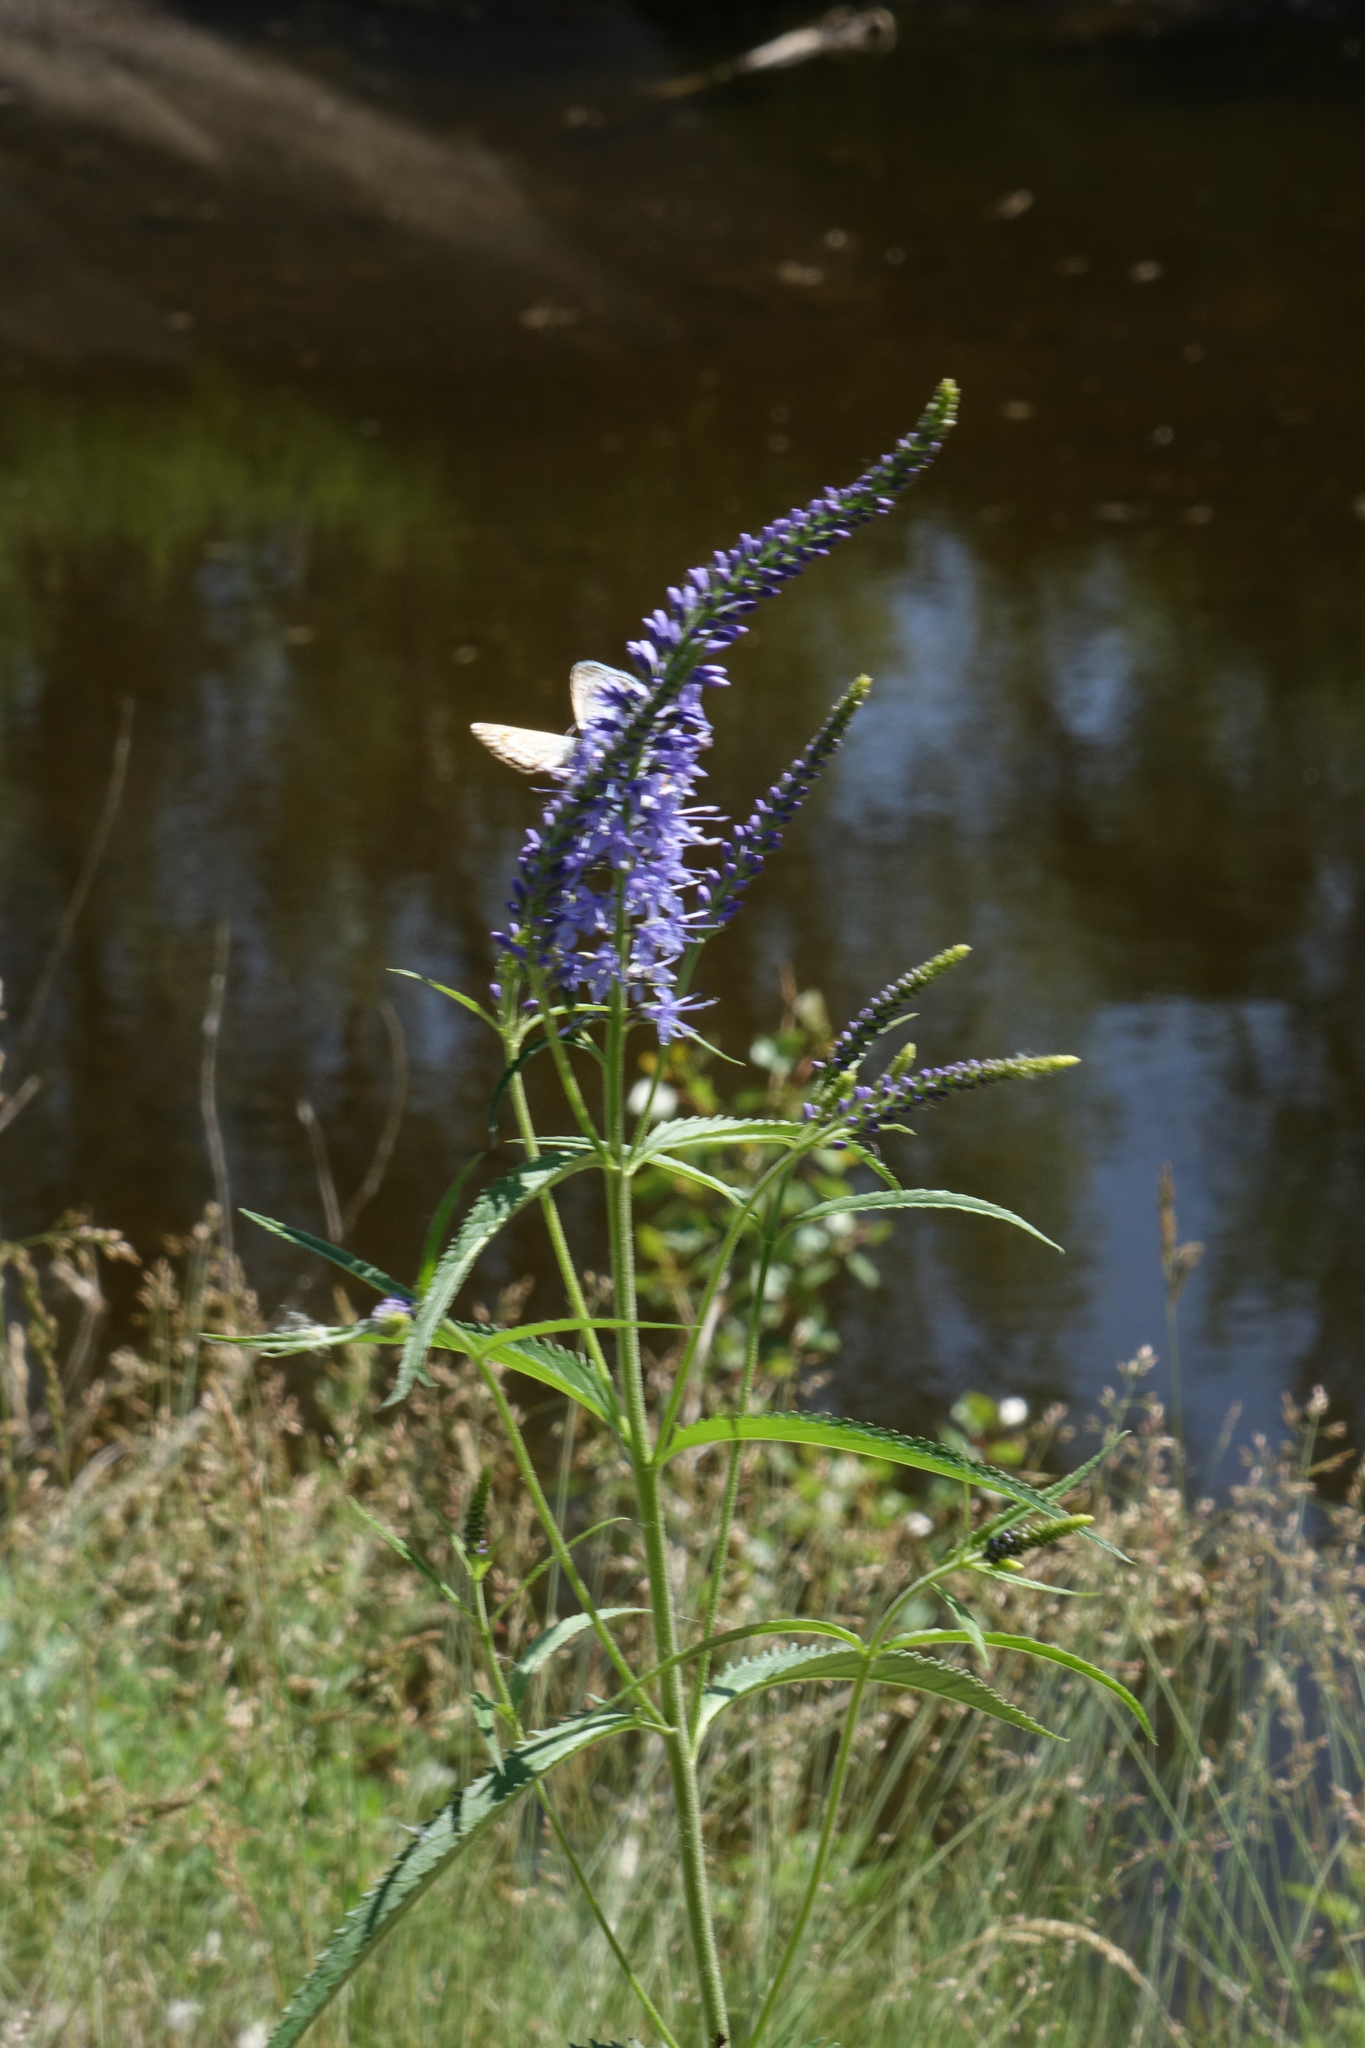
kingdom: Plantae
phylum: Tracheophyta
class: Magnoliopsida
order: Lamiales
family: Plantaginaceae
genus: Veronica
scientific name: Veronica longifolia
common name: Garden speedwell
